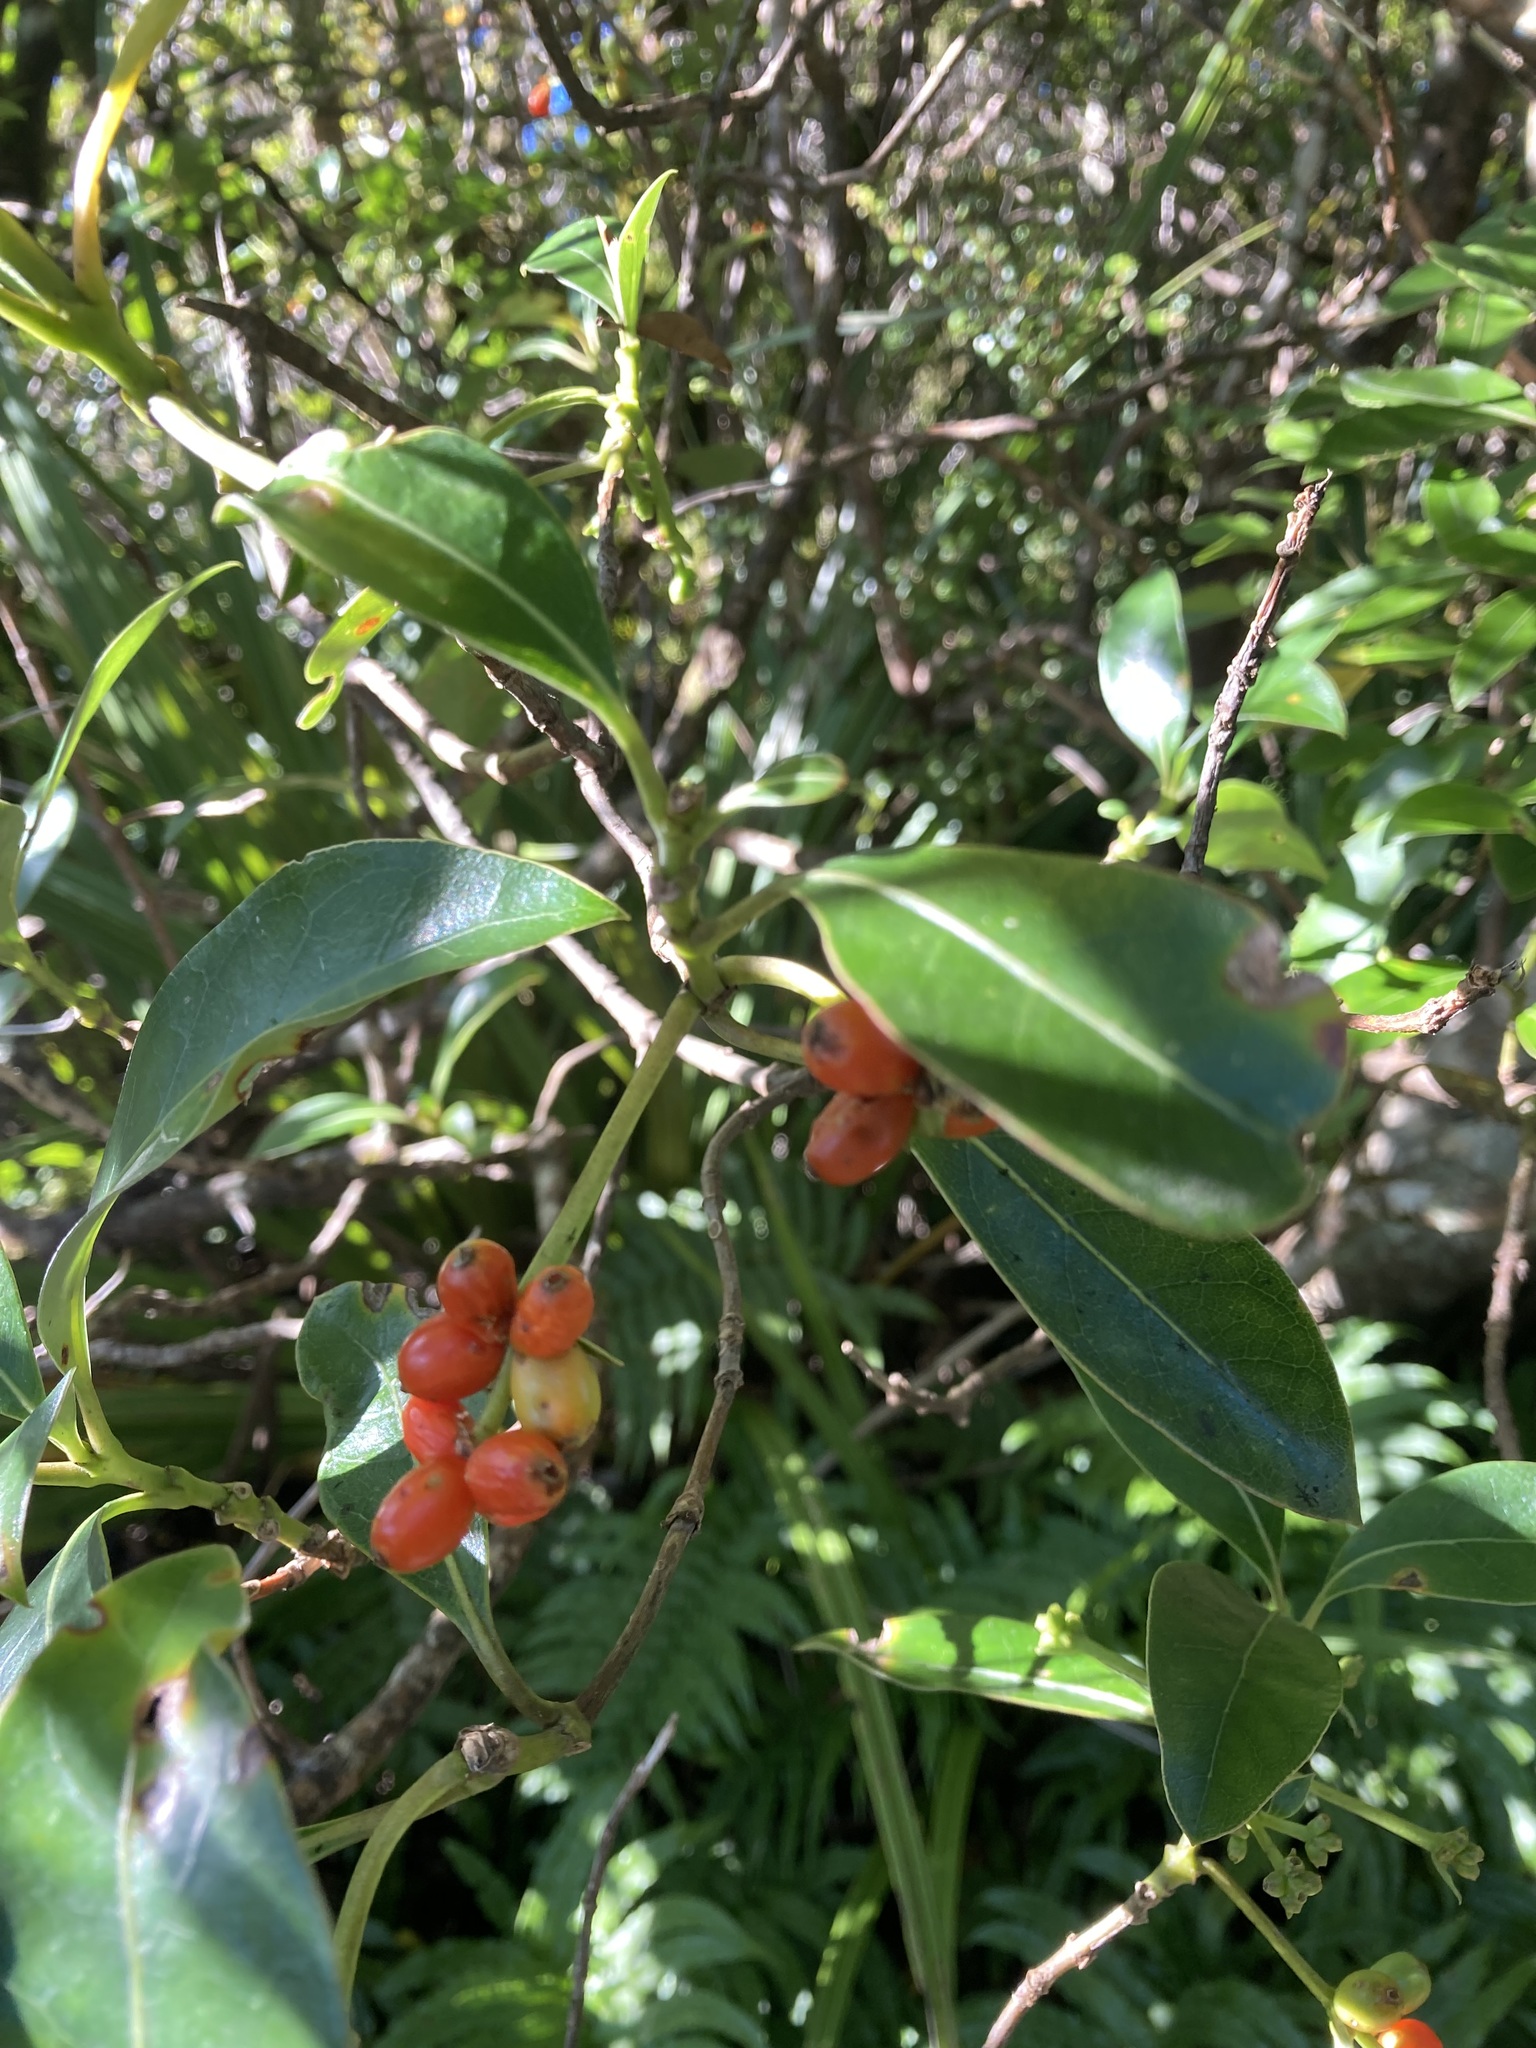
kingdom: Plantae
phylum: Tracheophyta
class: Magnoliopsida
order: Gentianales
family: Rubiaceae
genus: Coprosma
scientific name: Coprosma lucida
